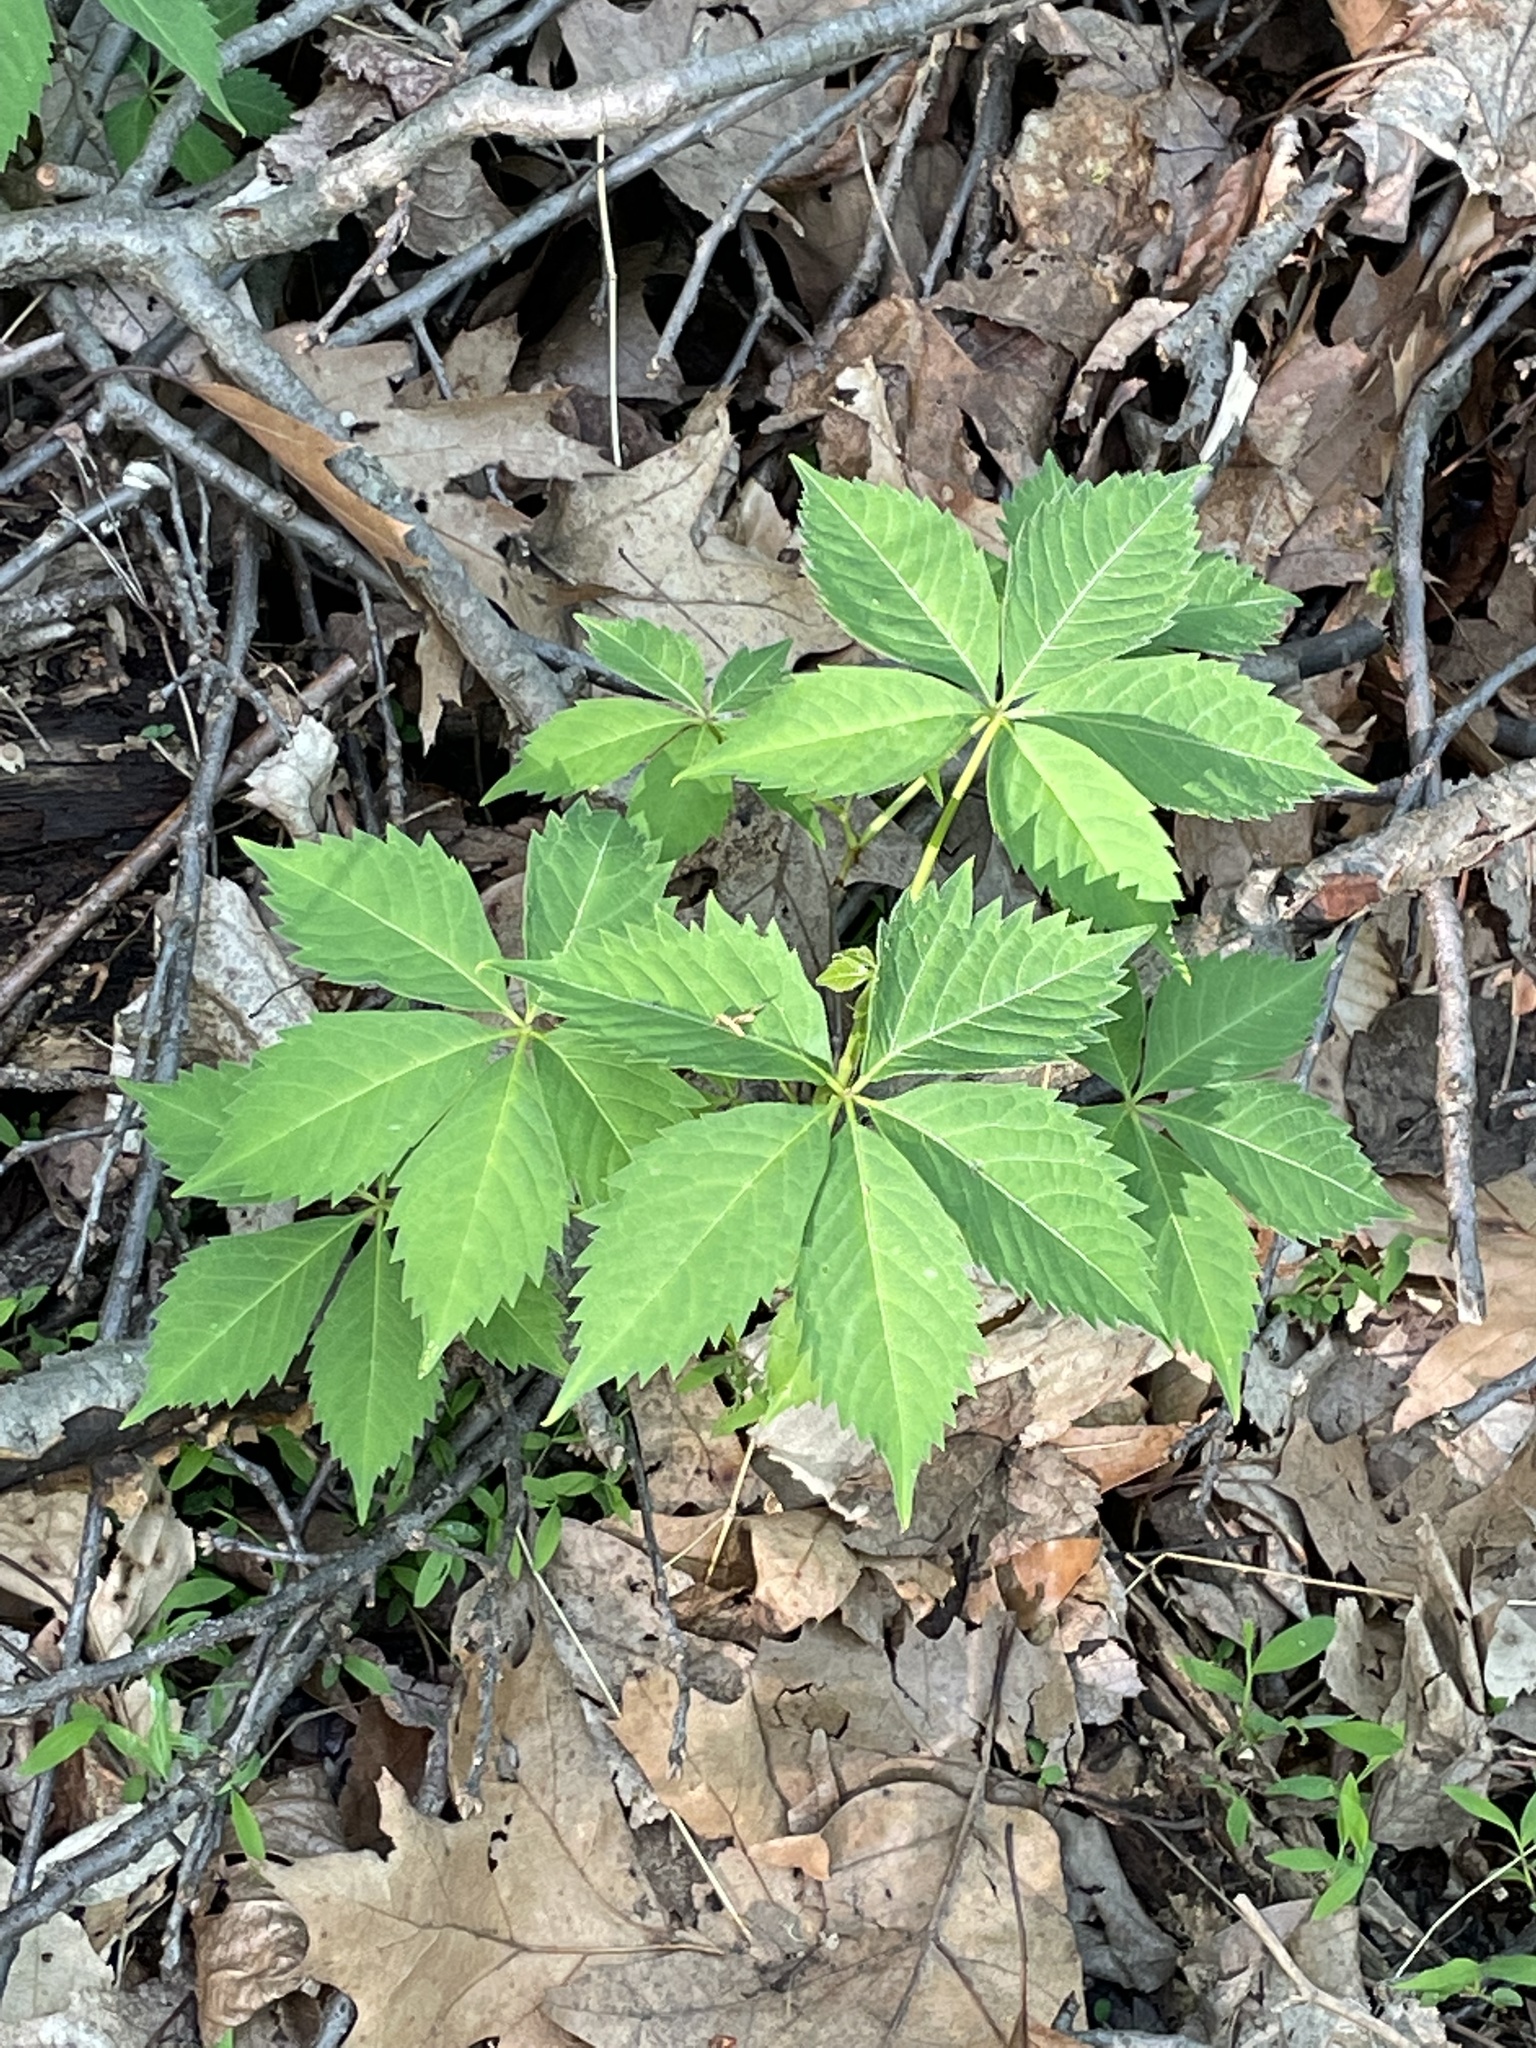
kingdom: Plantae
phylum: Tracheophyta
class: Magnoliopsida
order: Vitales
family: Vitaceae
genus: Parthenocissus
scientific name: Parthenocissus quinquefolia
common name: Virginia-creeper
